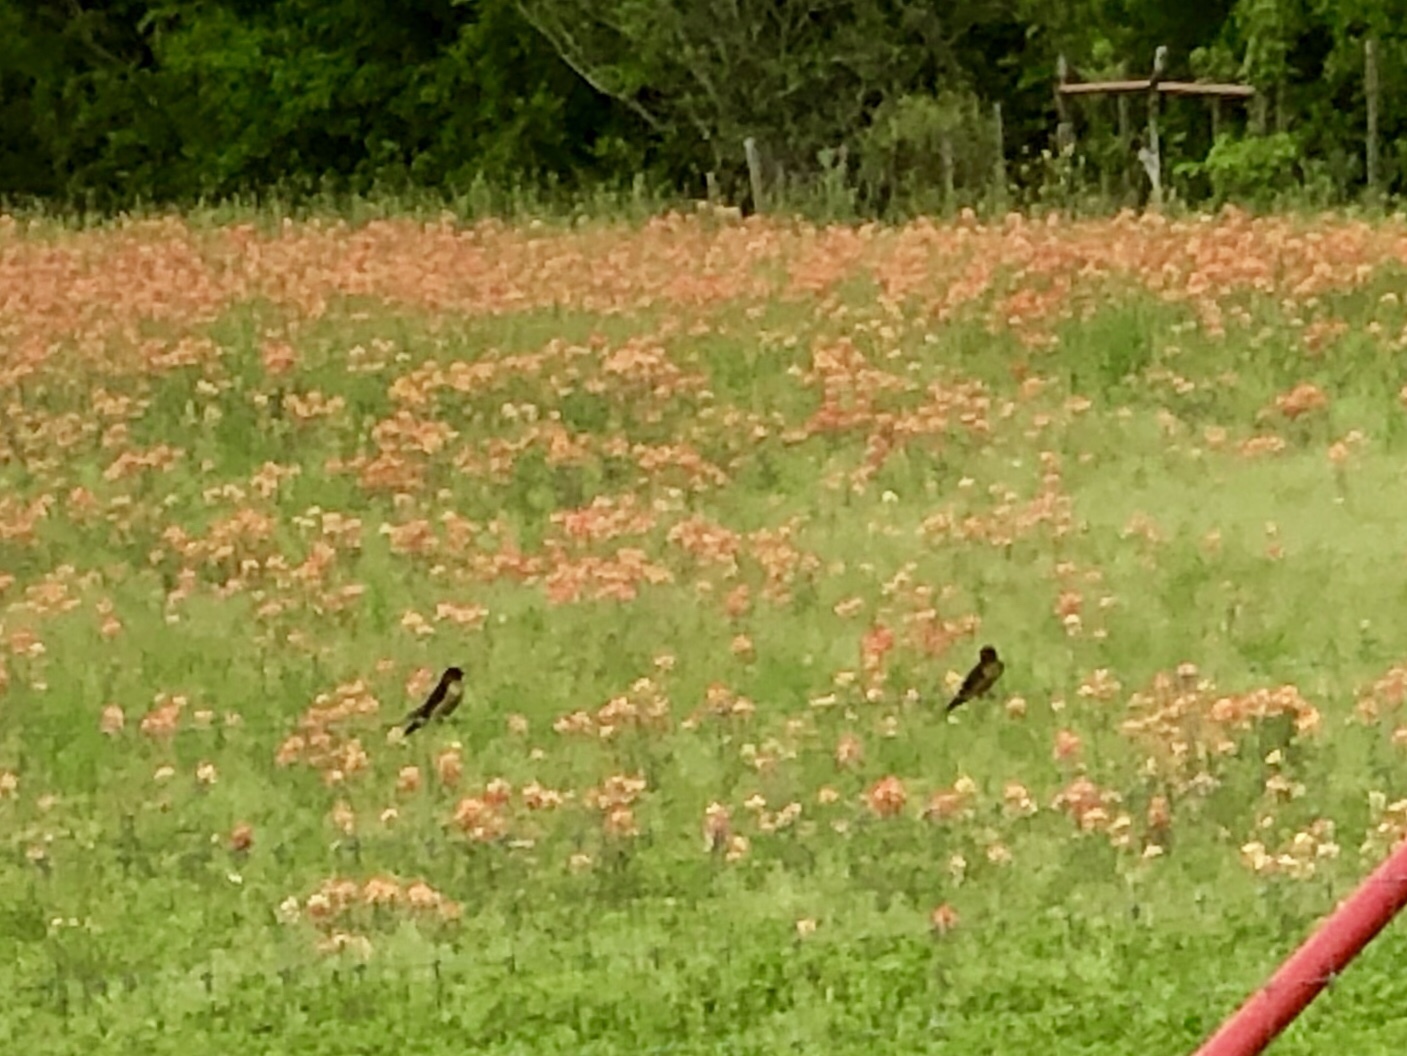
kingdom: Animalia
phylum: Chordata
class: Aves
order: Passeriformes
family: Hirundinidae
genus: Hirundo
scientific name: Hirundo rustica
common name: Barn swallow
